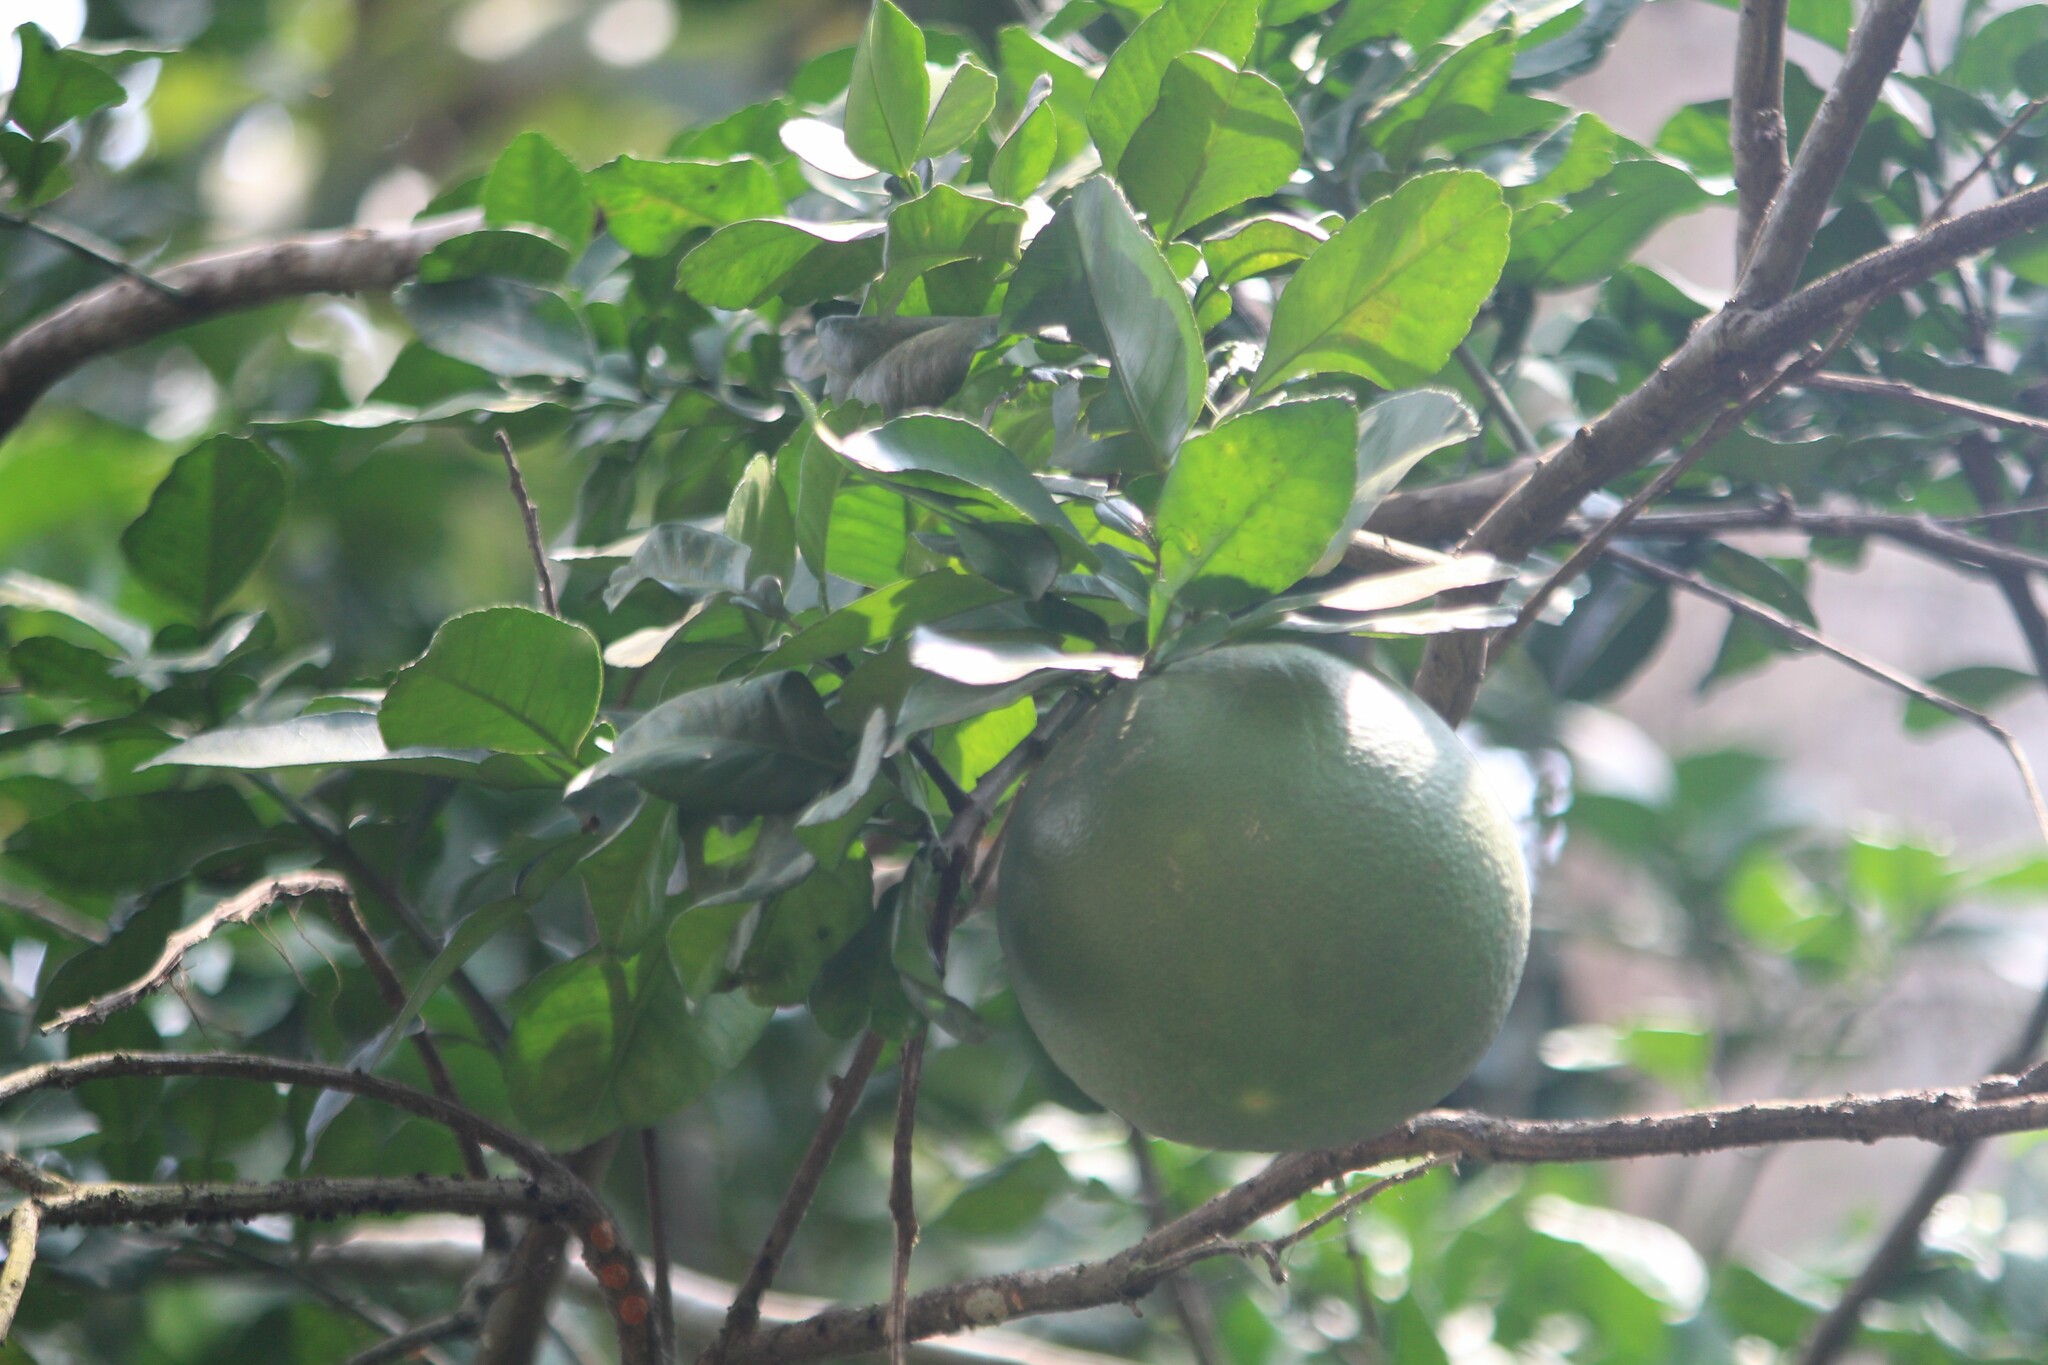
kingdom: Plantae
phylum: Tracheophyta
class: Magnoliopsida
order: Sapindales
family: Rutaceae
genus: Citrus
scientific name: Citrus maxima
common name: Pomelo
